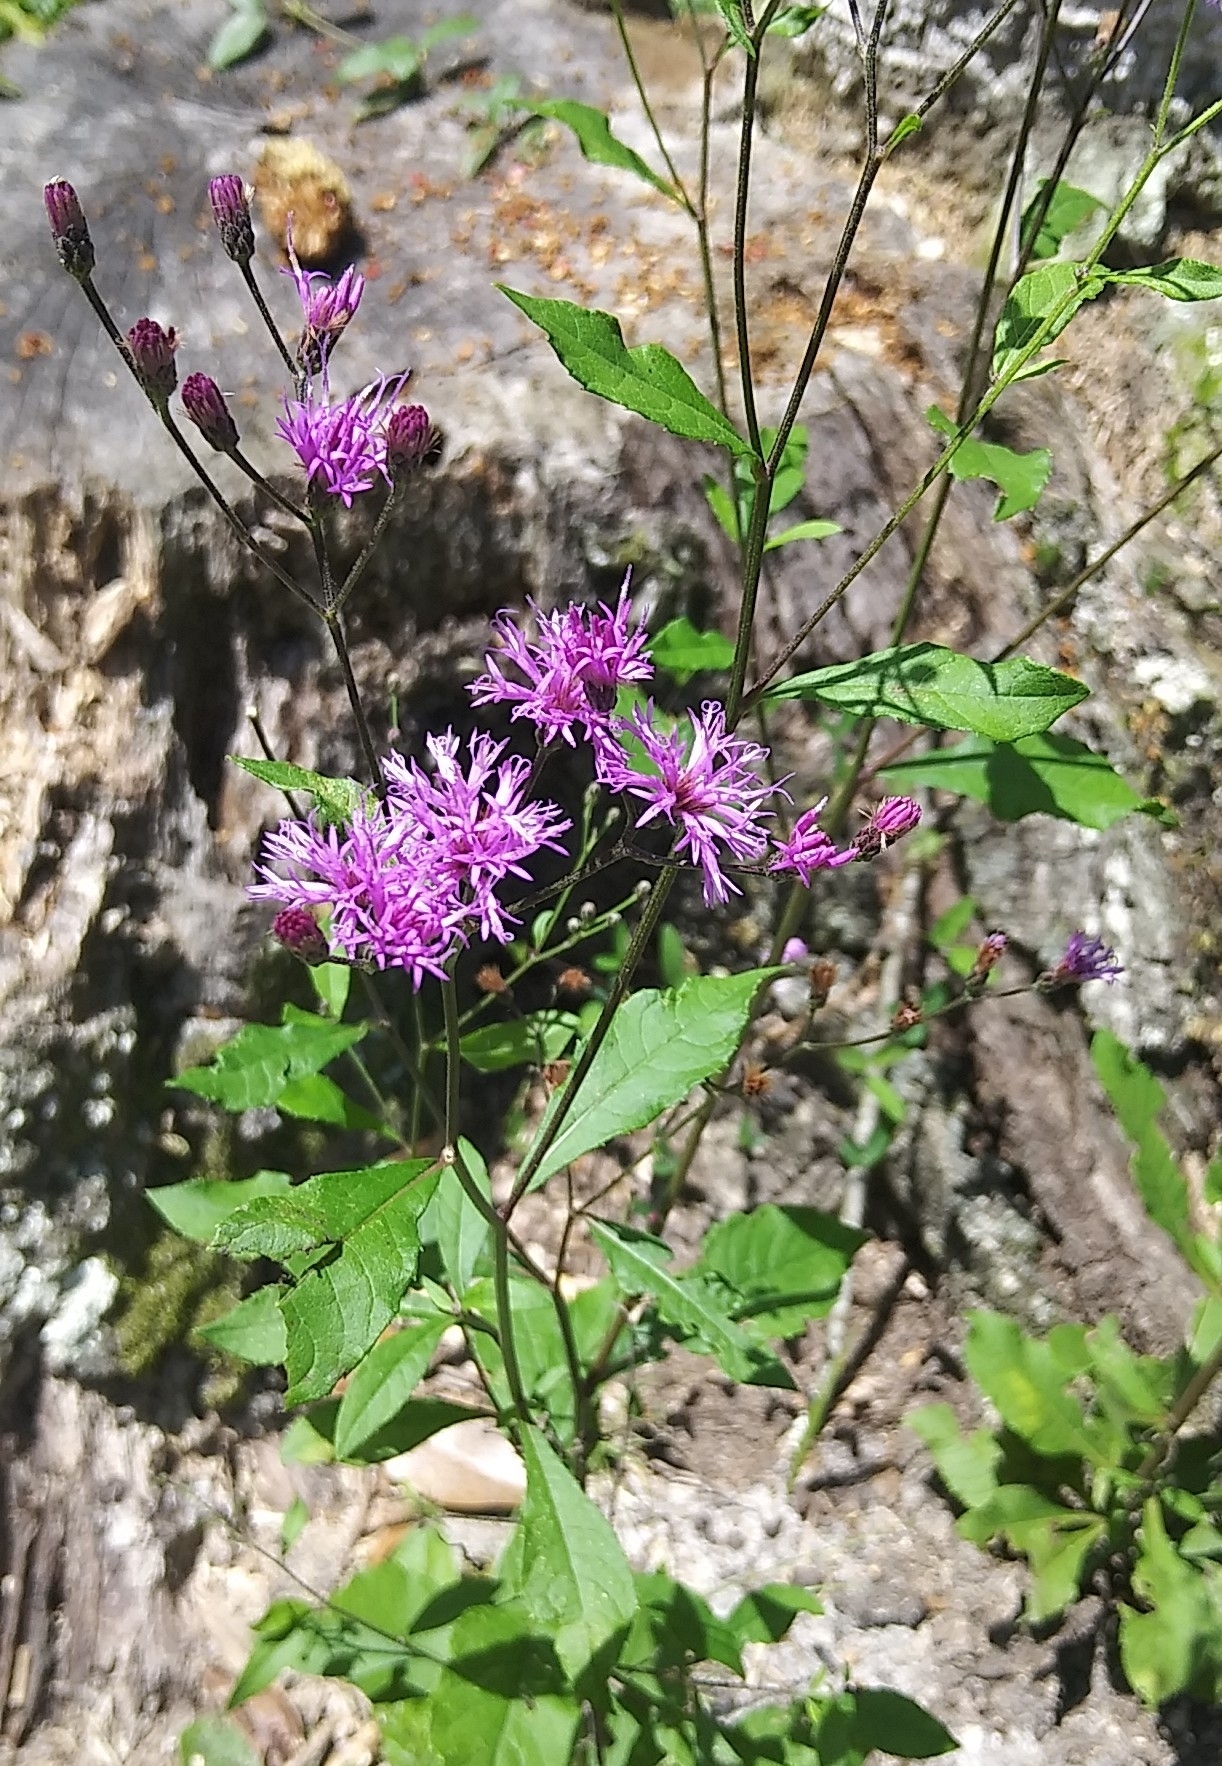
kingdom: Plantae
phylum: Tracheophyta
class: Magnoliopsida
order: Asterales
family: Asteraceae
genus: Vernonia
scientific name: Vernonia gigantea
